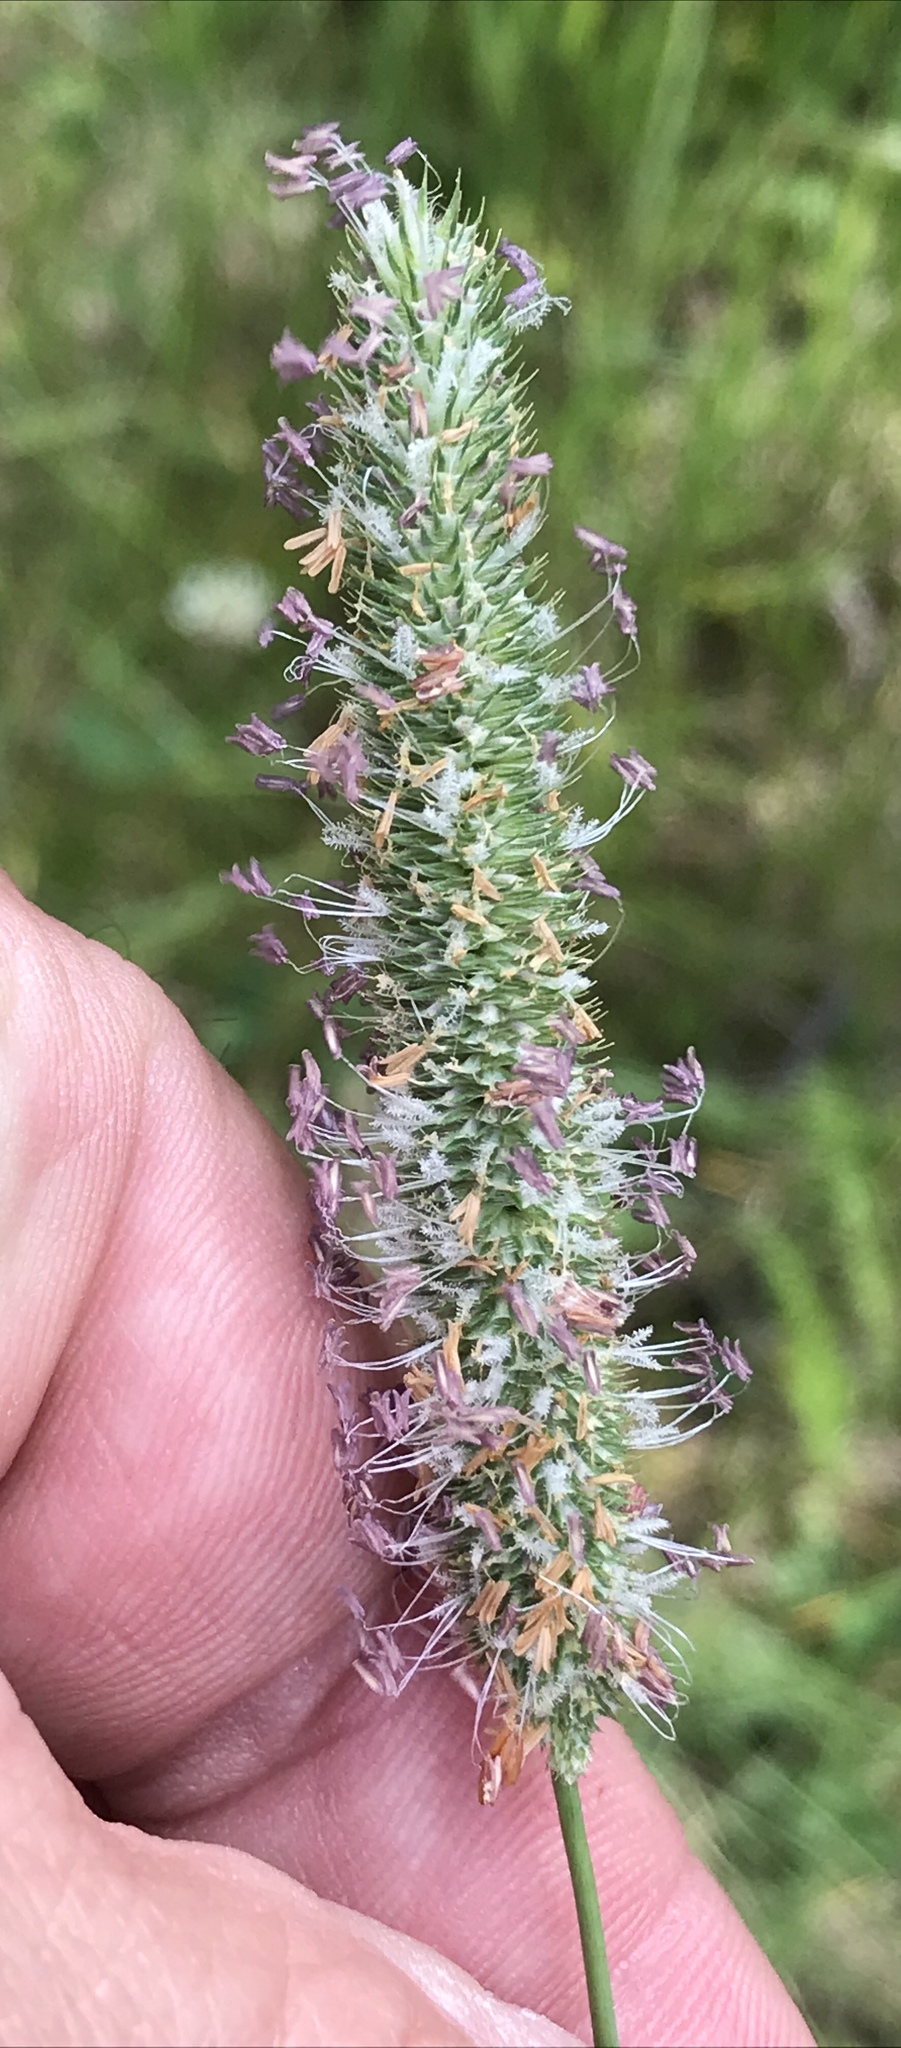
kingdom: Plantae
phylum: Tracheophyta
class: Liliopsida
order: Poales
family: Poaceae
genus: Phleum
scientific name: Phleum pratense
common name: Timothy grass
